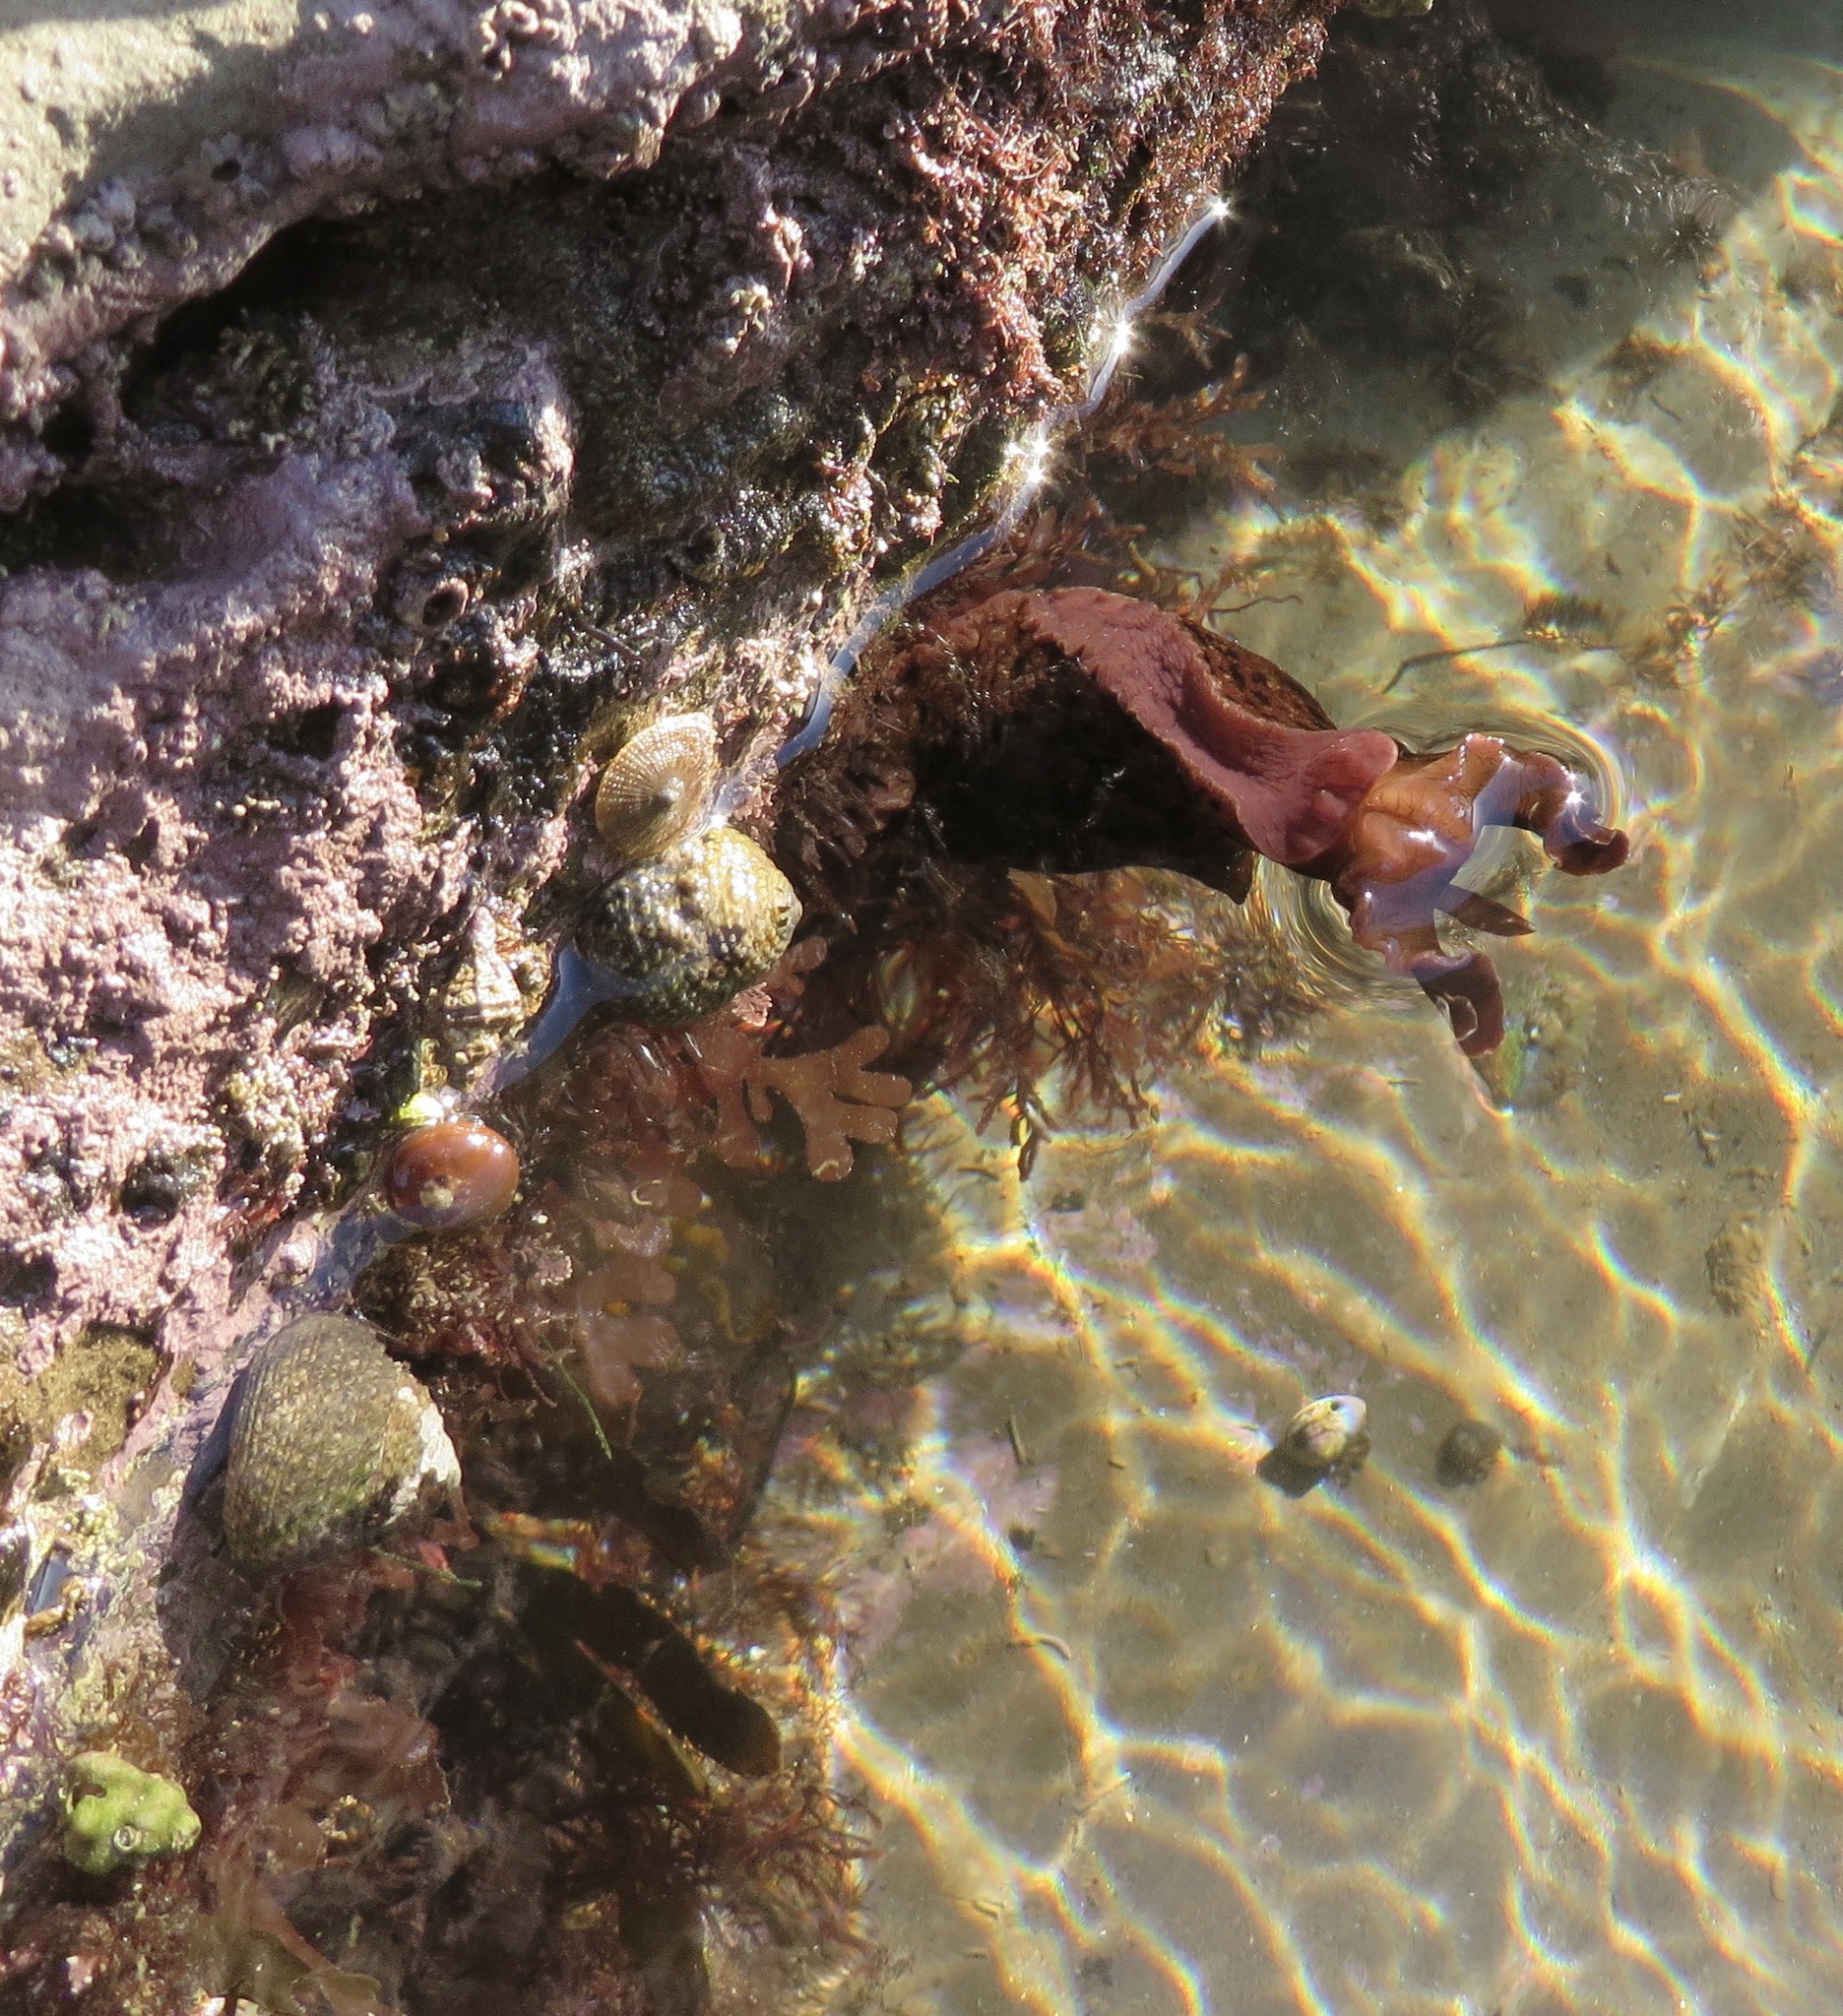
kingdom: Animalia
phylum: Mollusca
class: Gastropoda
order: Aplysiida
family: Aplysiidae
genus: Aplysia
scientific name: Aplysia californica
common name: California seahare
